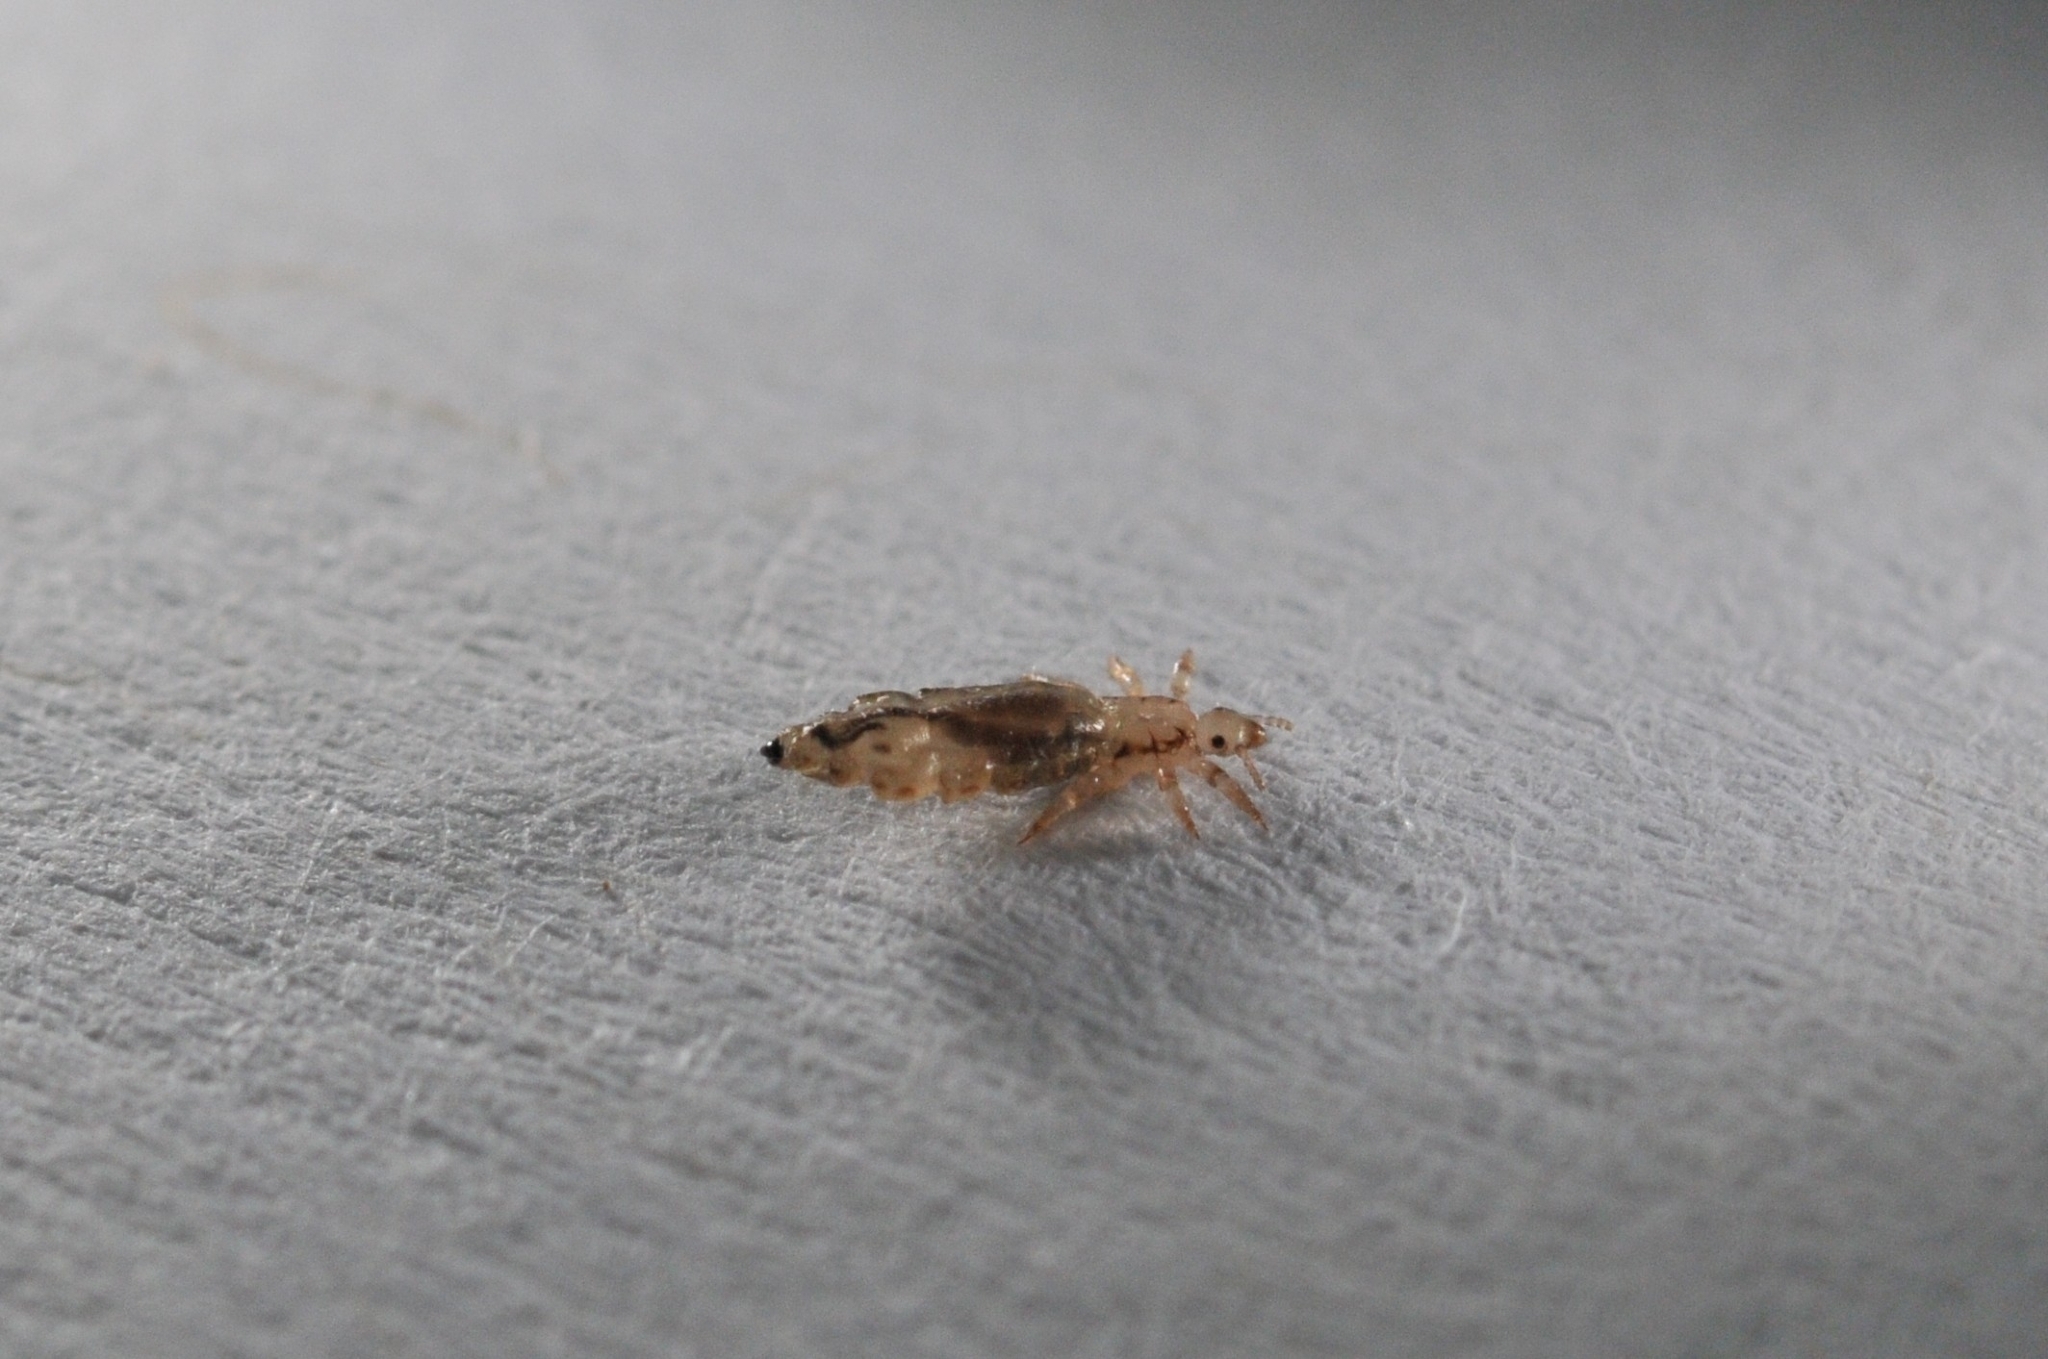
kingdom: Animalia
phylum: Arthropoda
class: Insecta
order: Psocodea
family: Pediculidae
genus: Pediculus
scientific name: Pediculus humanus
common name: Body louse
